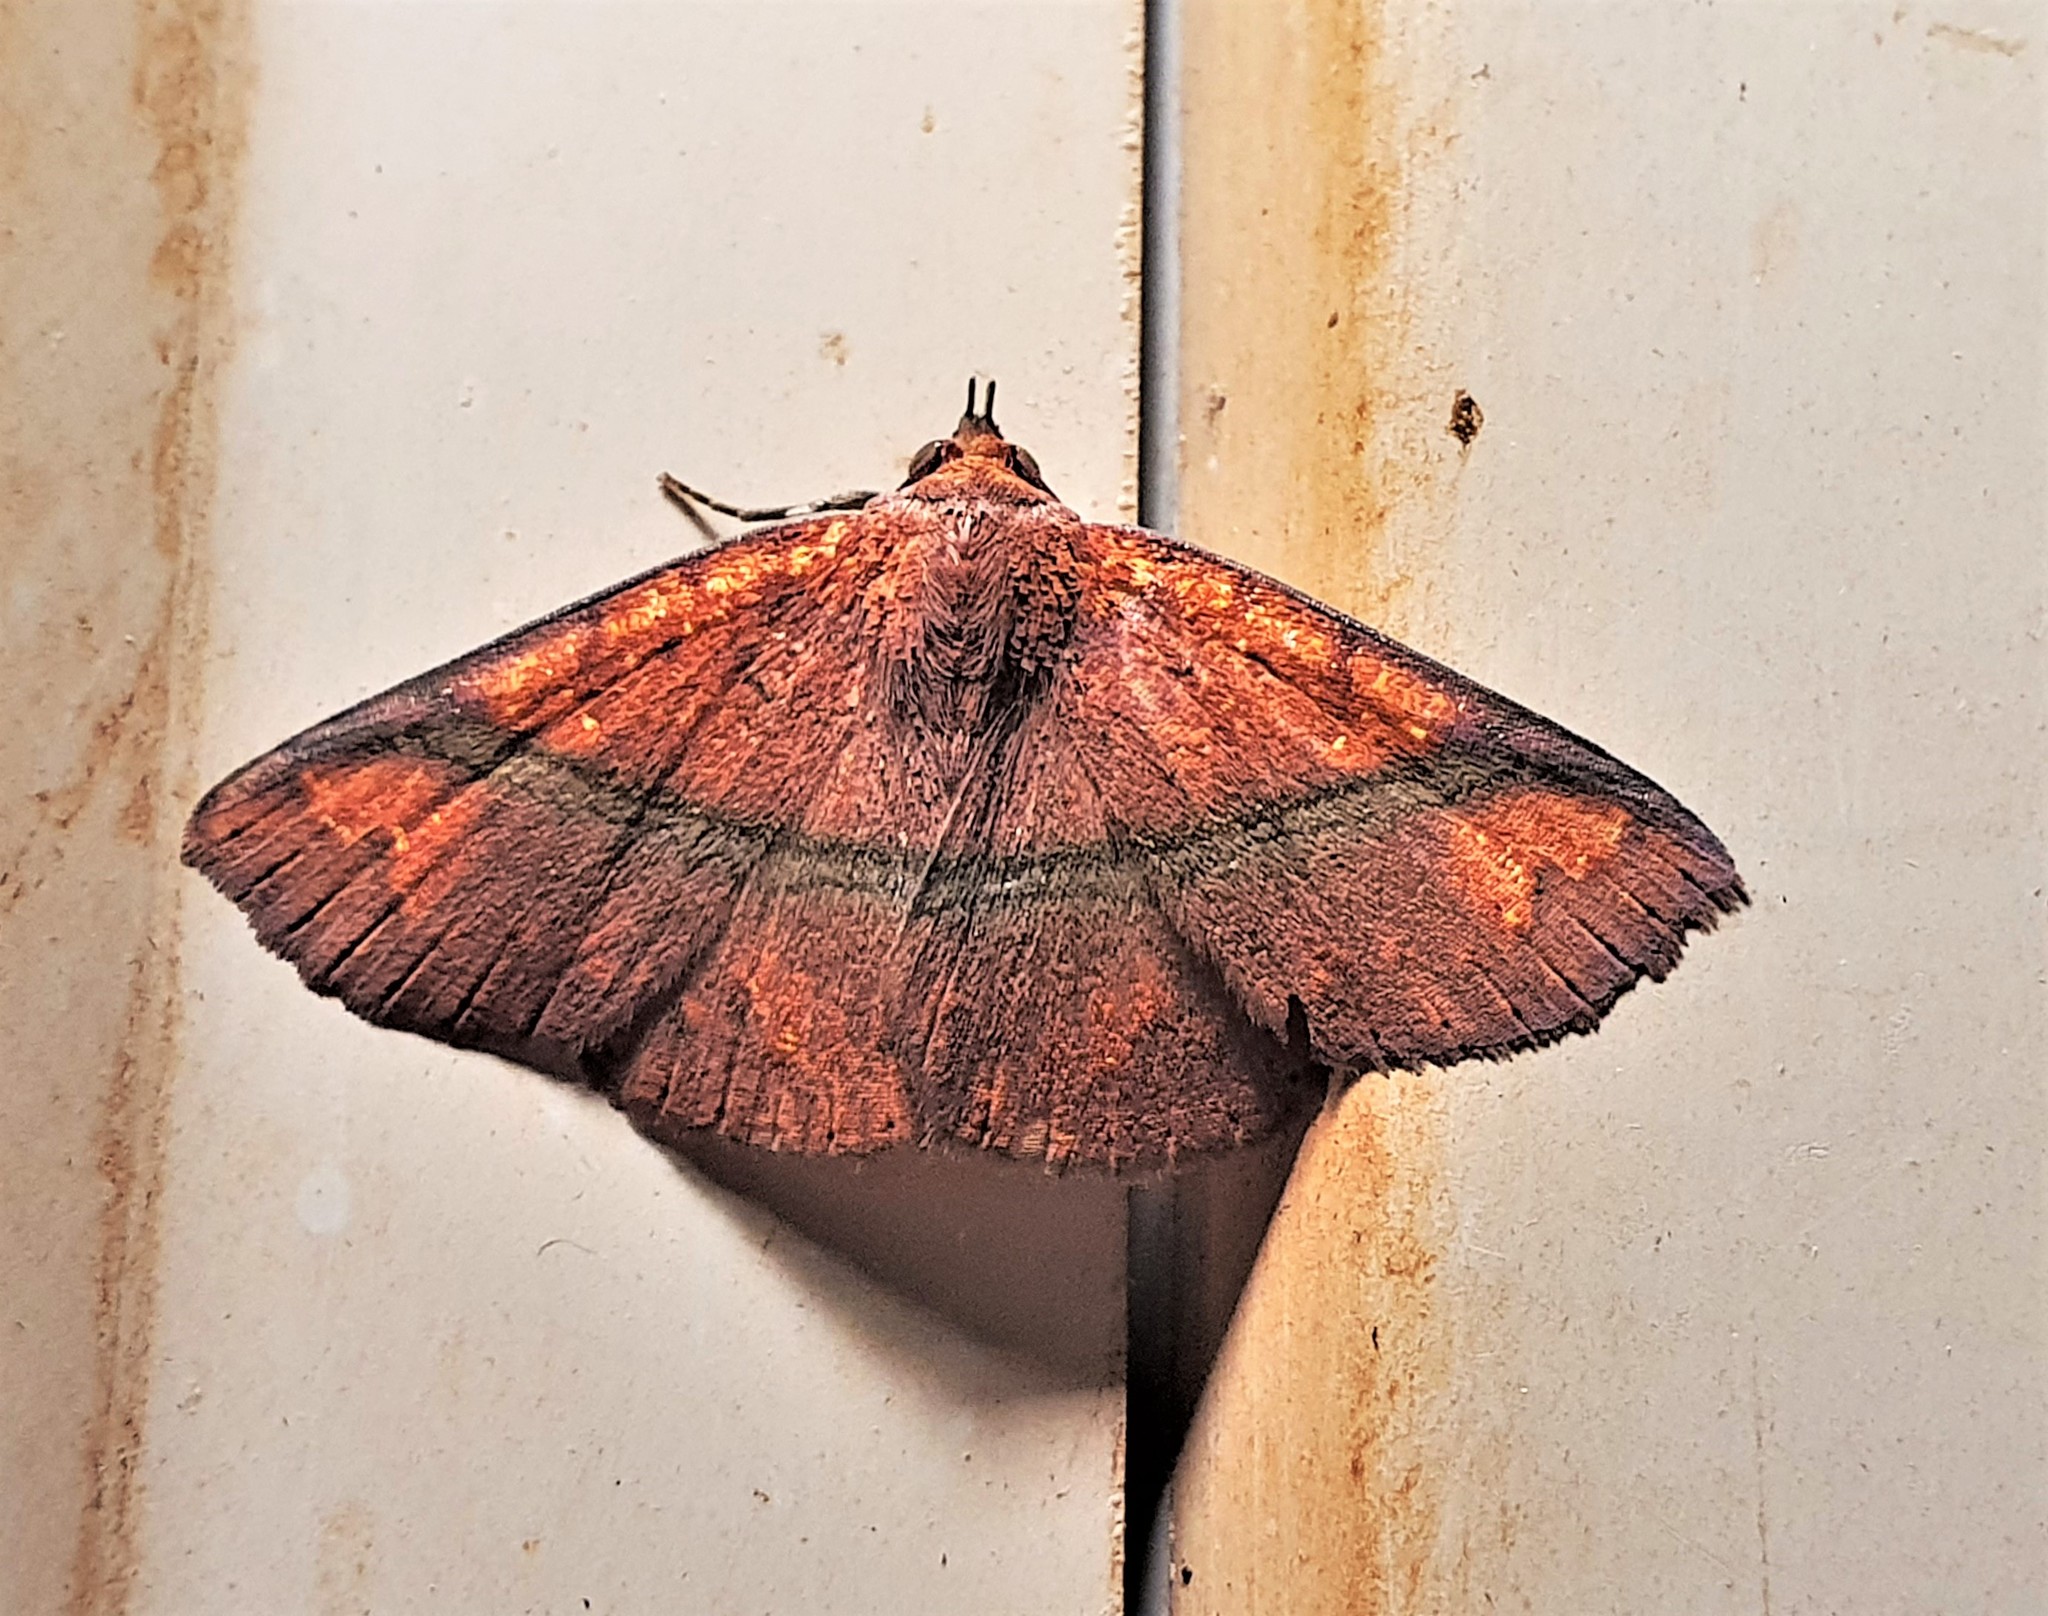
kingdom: Animalia
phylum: Arthropoda
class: Insecta
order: Lepidoptera
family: Erebidae
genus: Antiblemma
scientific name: Antiblemma subrutilans
